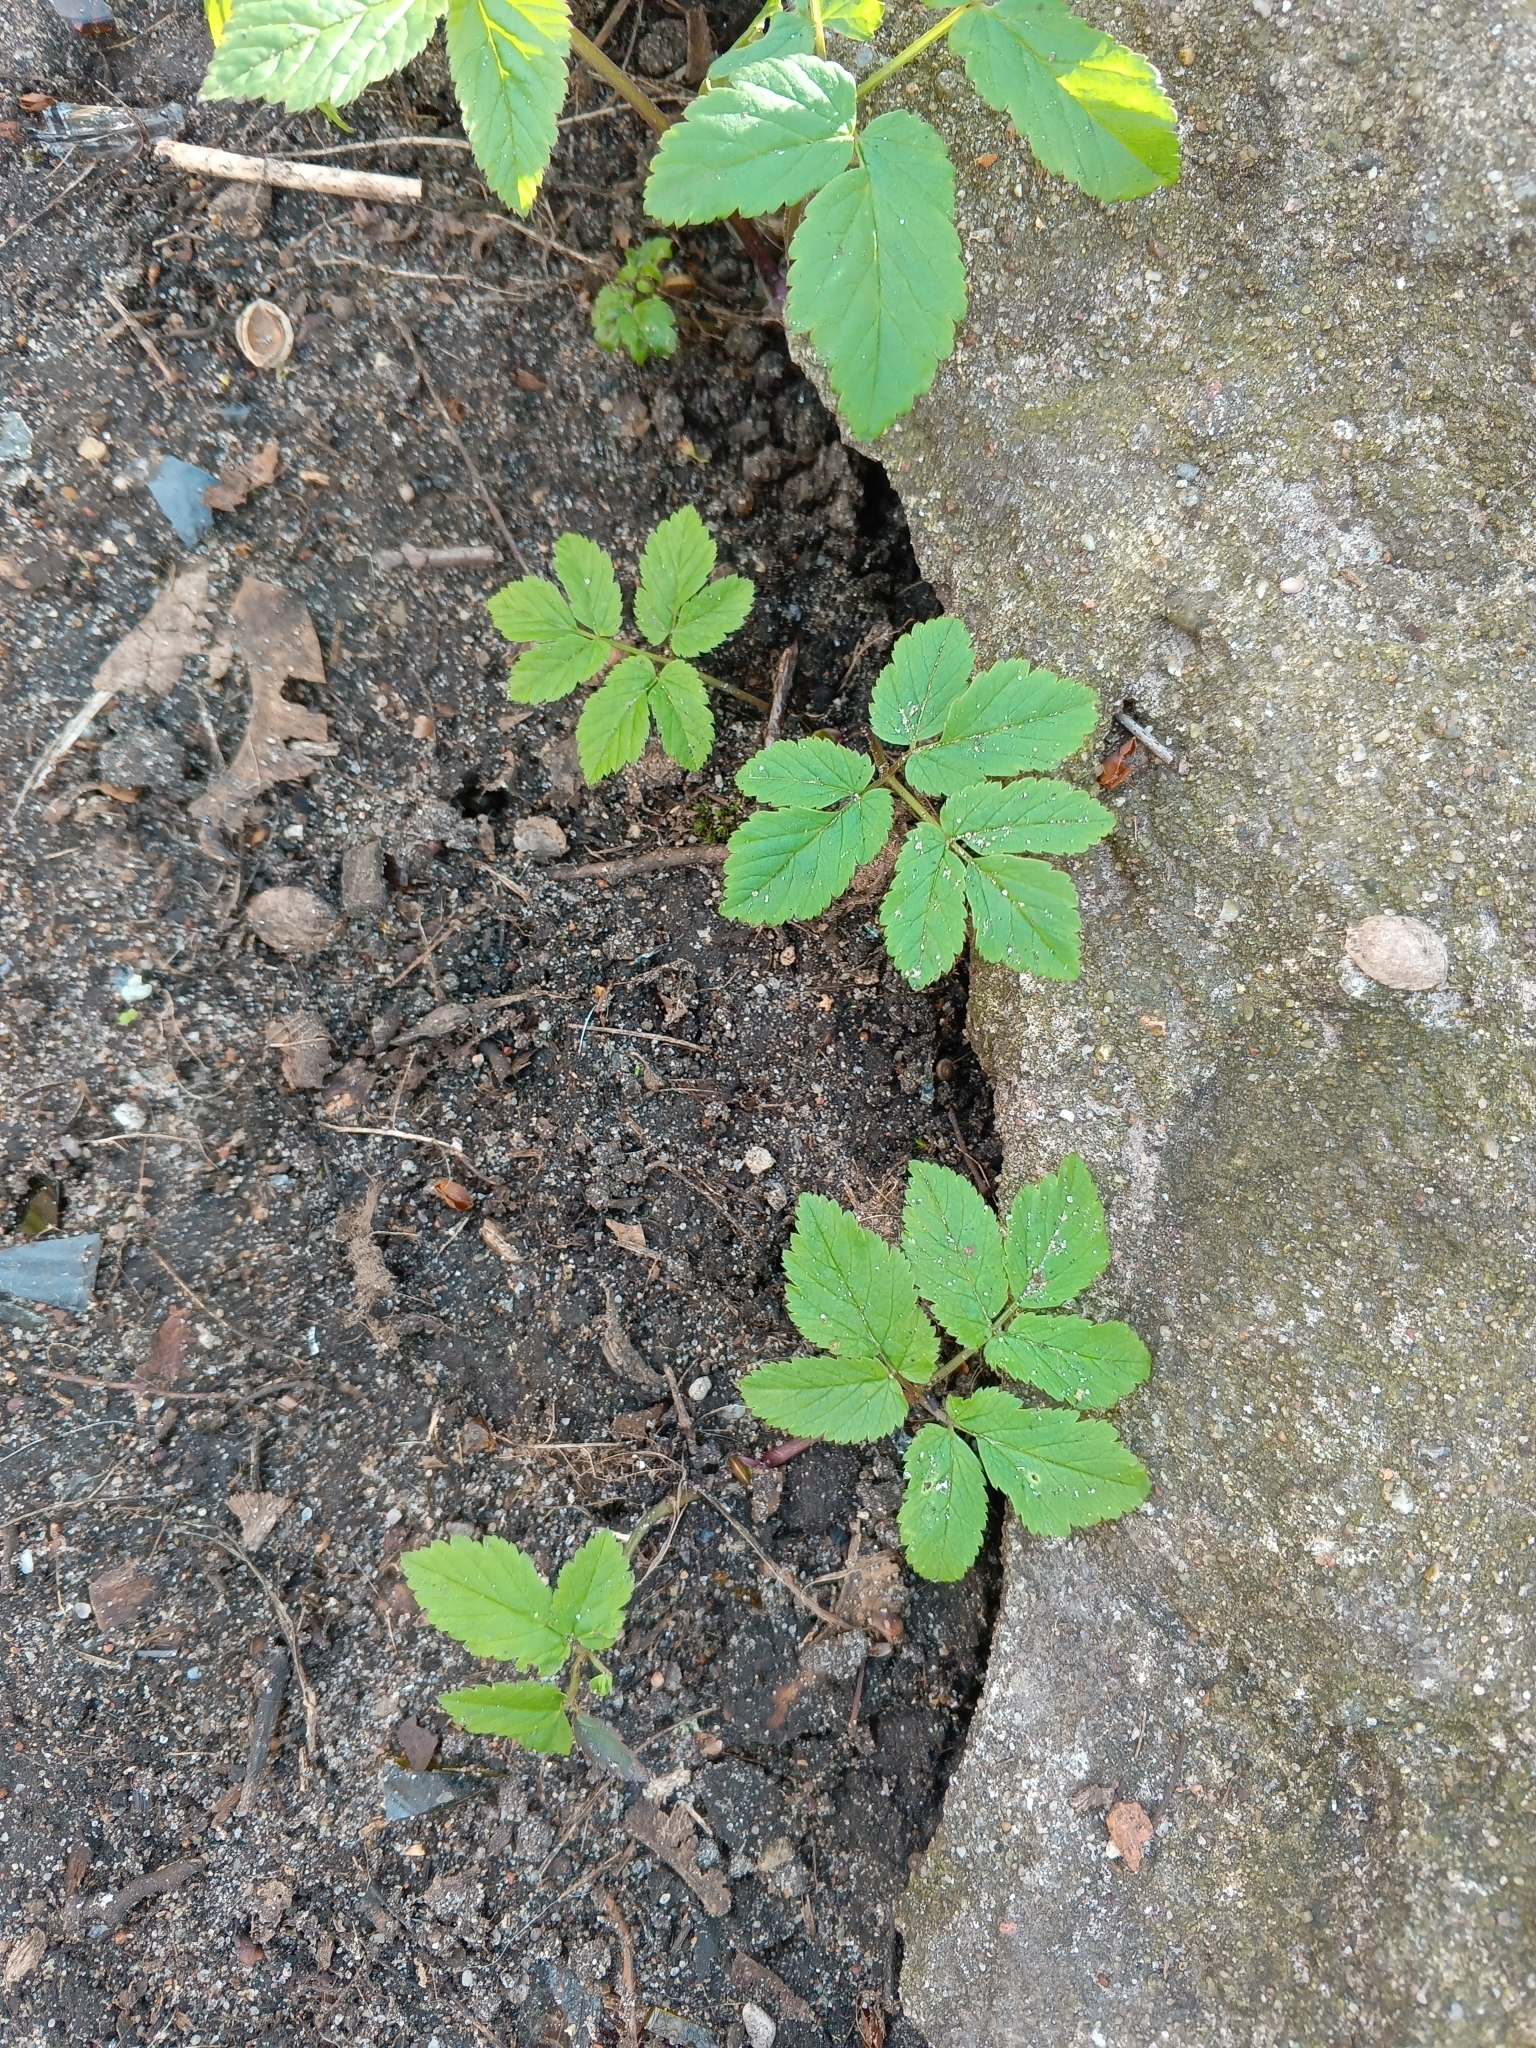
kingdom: Plantae
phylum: Tracheophyta
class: Magnoliopsida
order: Apiales
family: Apiaceae
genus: Aegopodium
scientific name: Aegopodium podagraria
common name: Ground-elder
